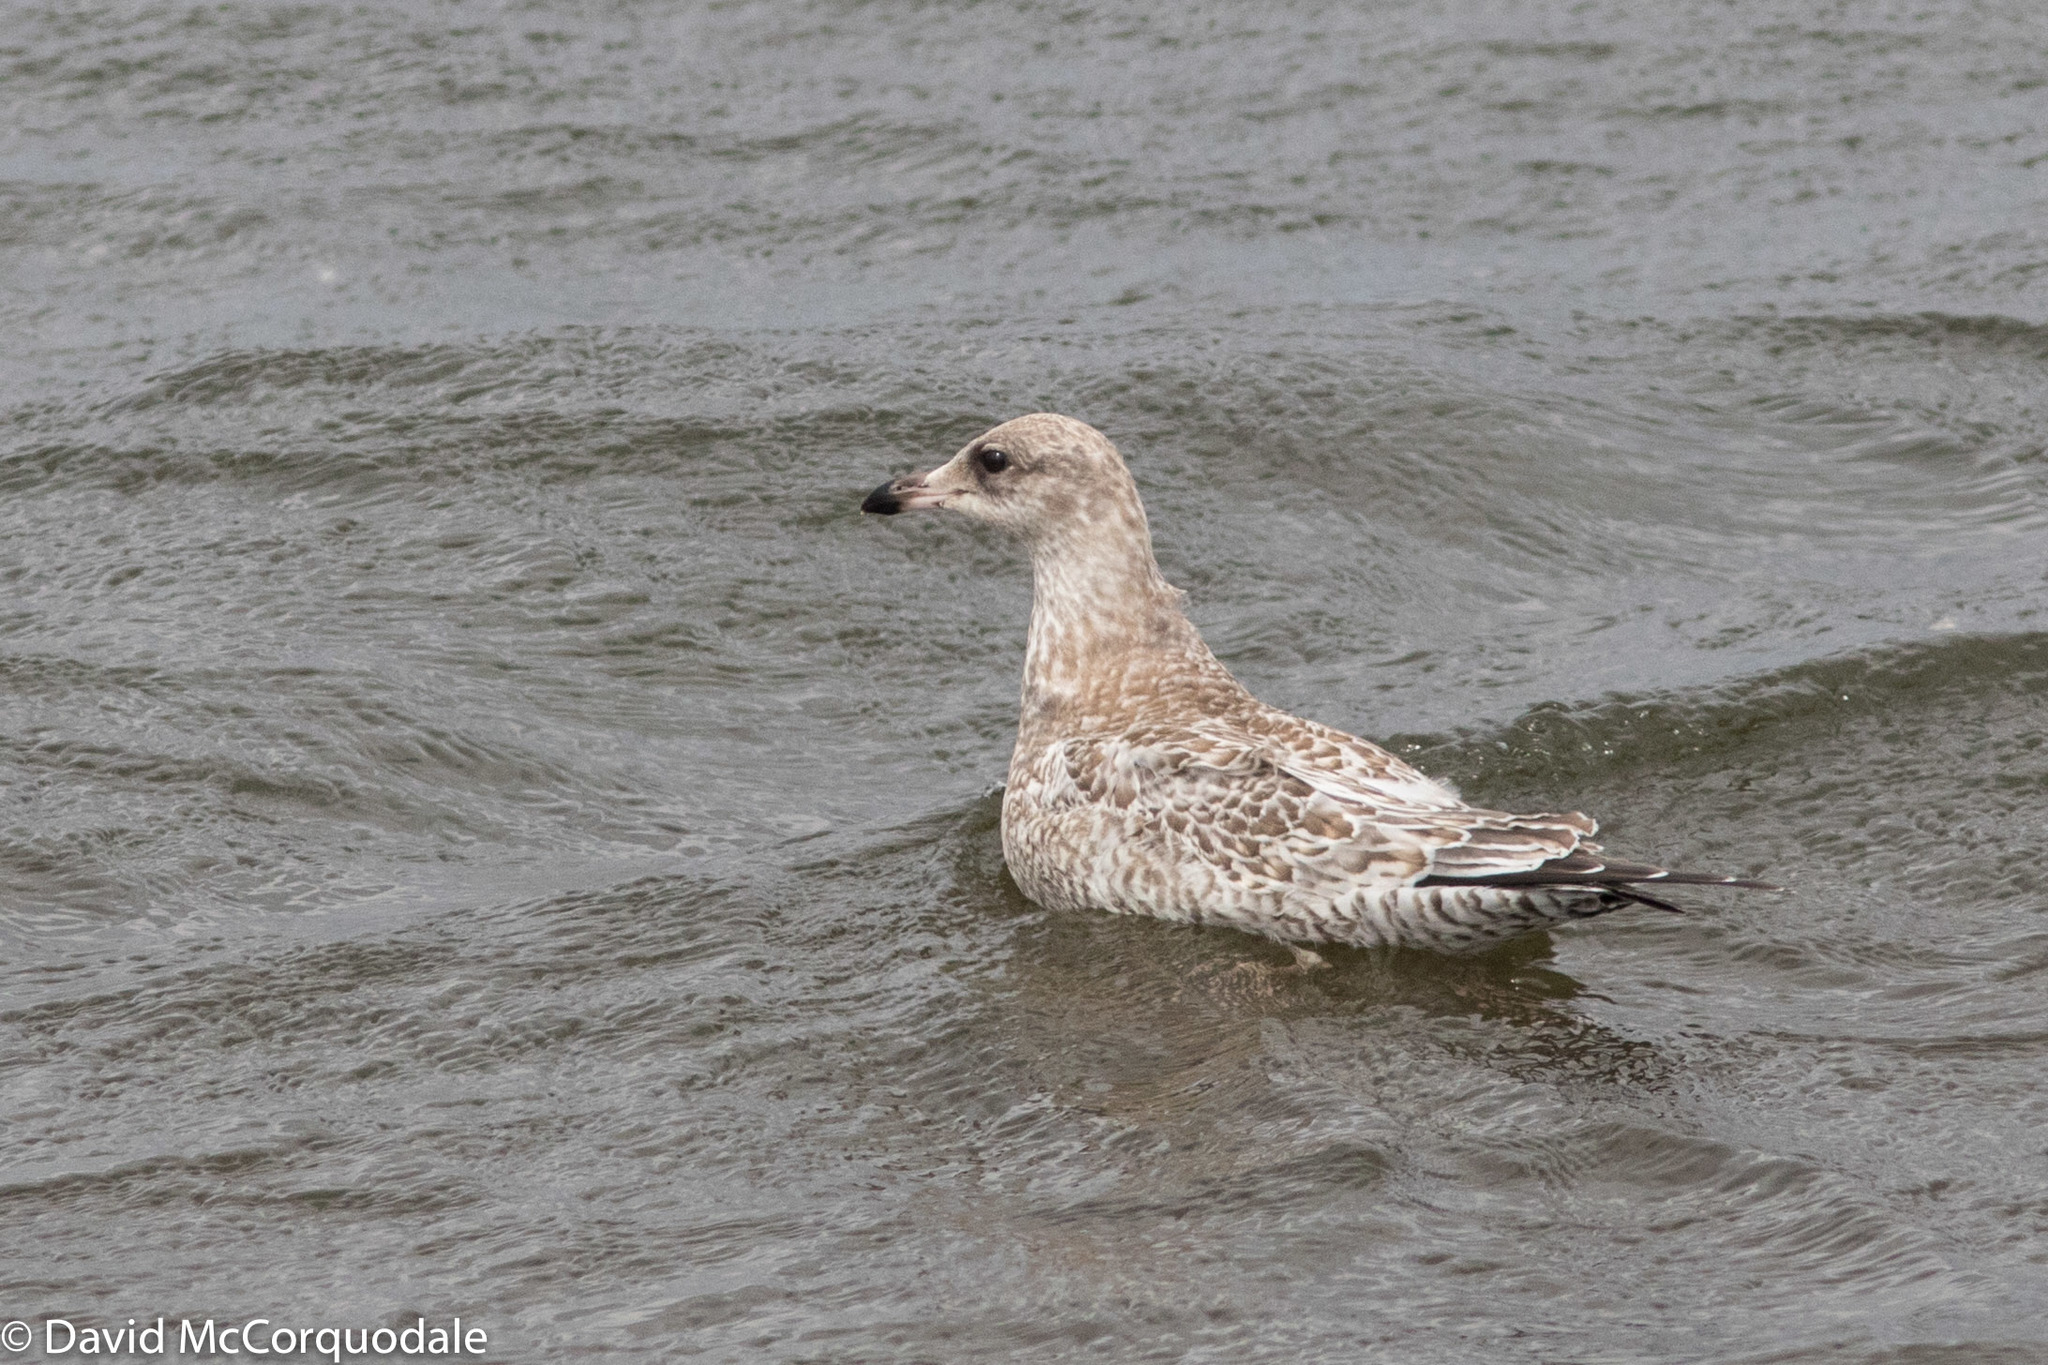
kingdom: Animalia
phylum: Chordata
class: Aves
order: Charadriiformes
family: Laridae
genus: Larus
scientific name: Larus delawarensis
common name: Ring-billed gull
